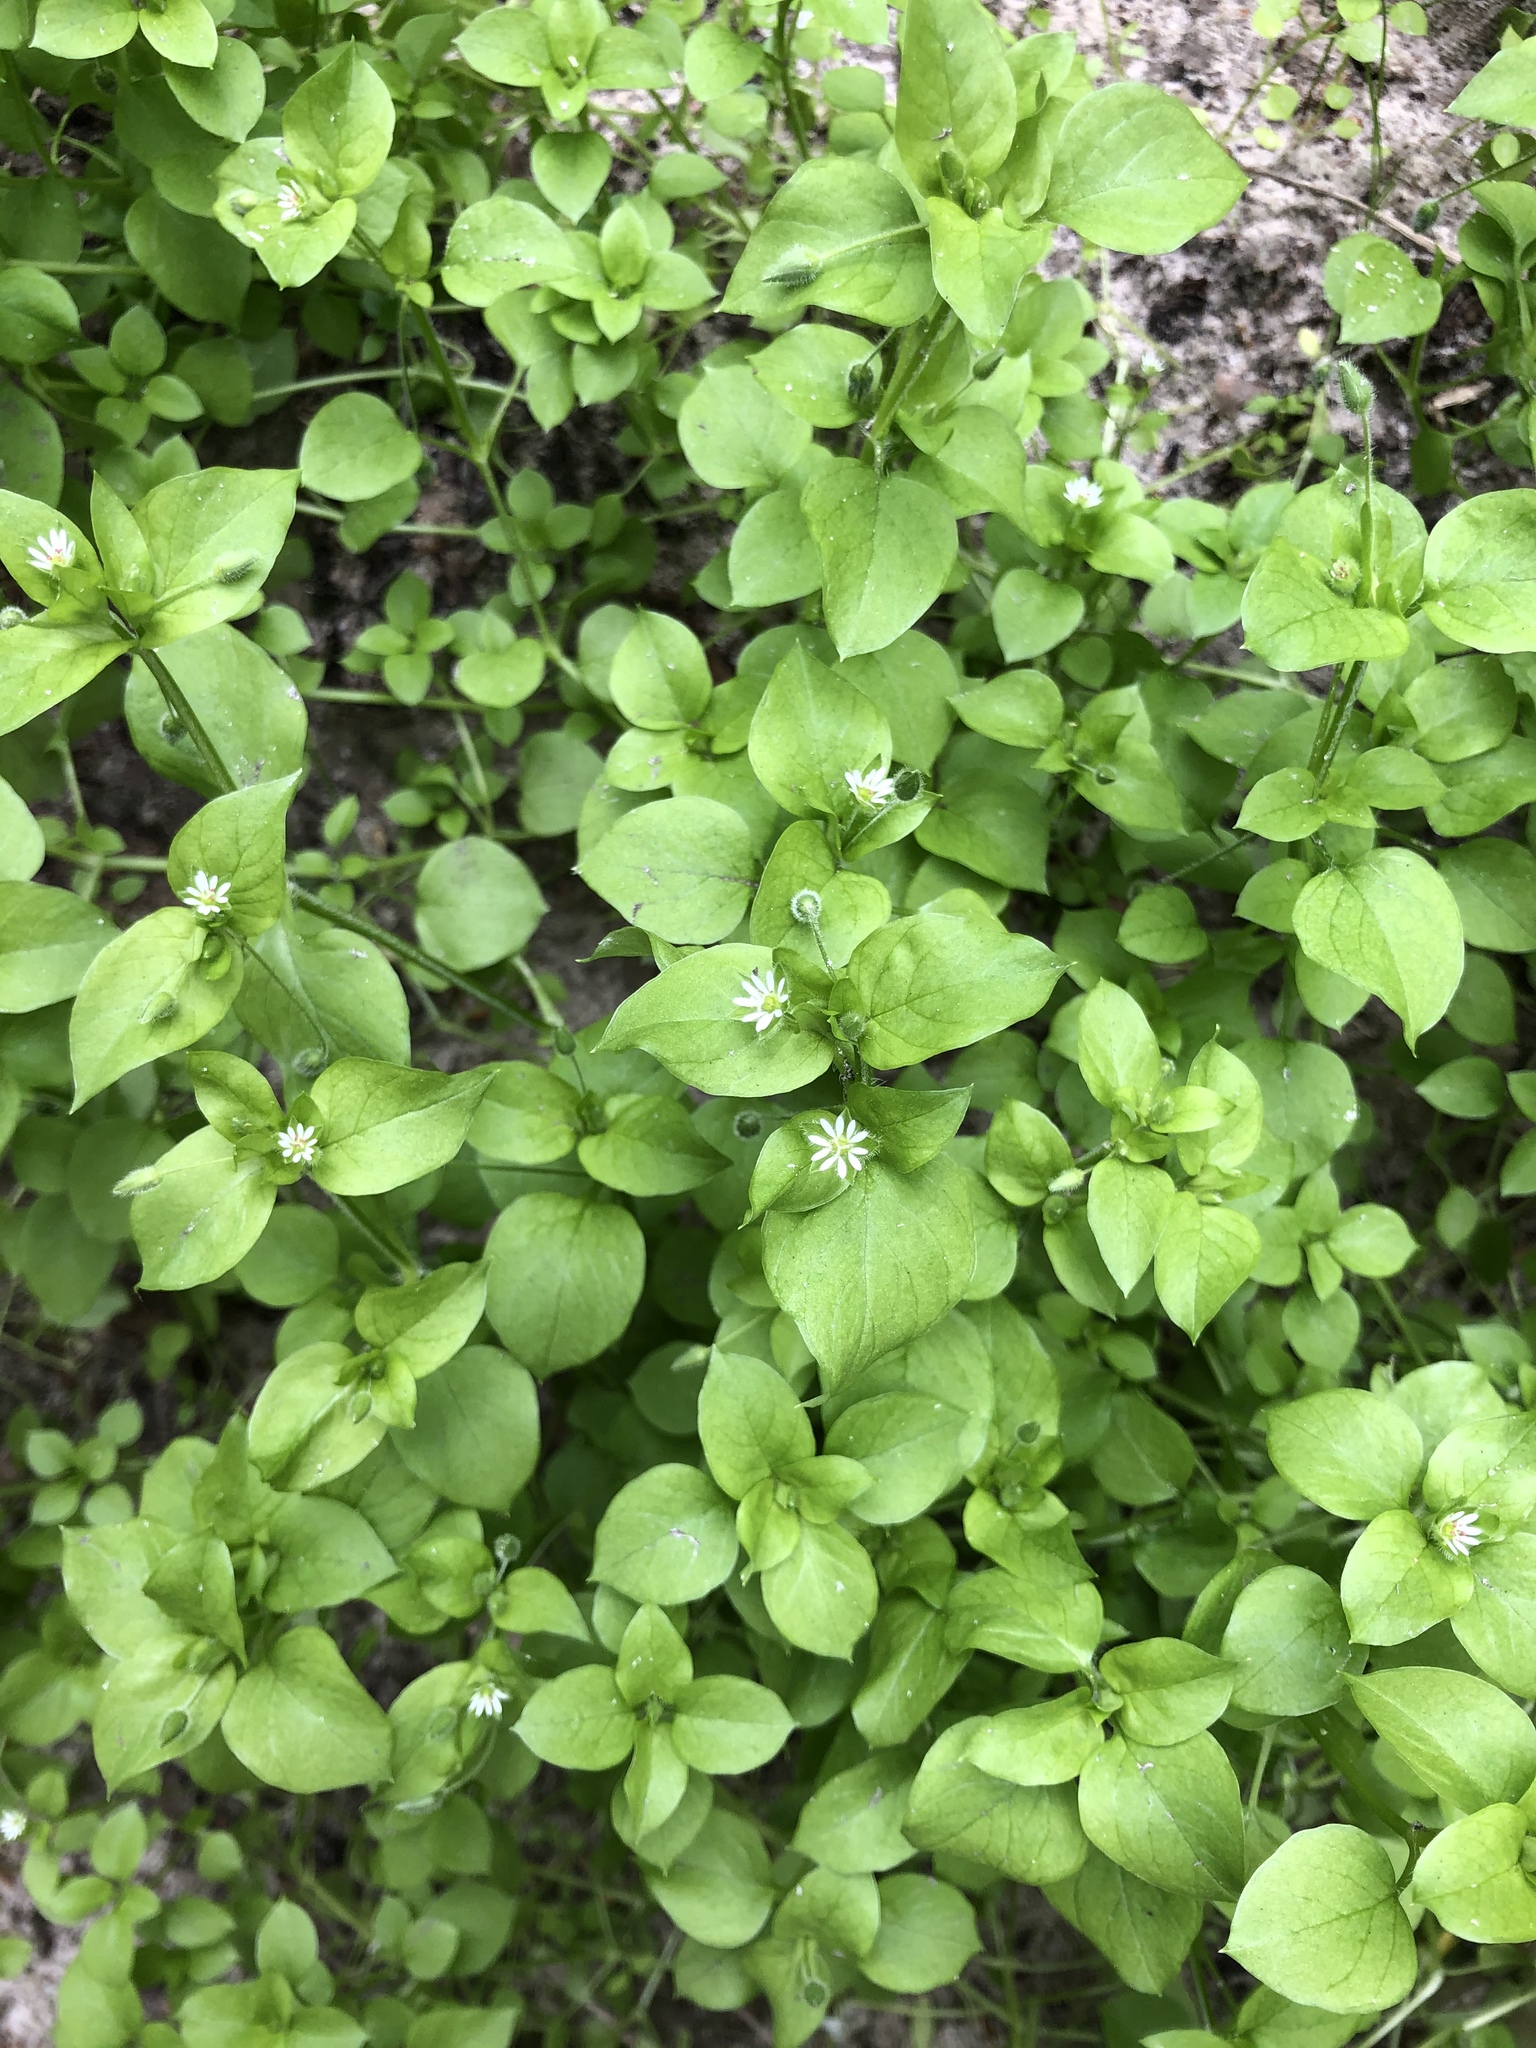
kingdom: Plantae
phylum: Tracheophyta
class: Magnoliopsida
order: Caryophyllales
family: Caryophyllaceae
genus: Stellaria
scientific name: Stellaria media
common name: Common chickweed
